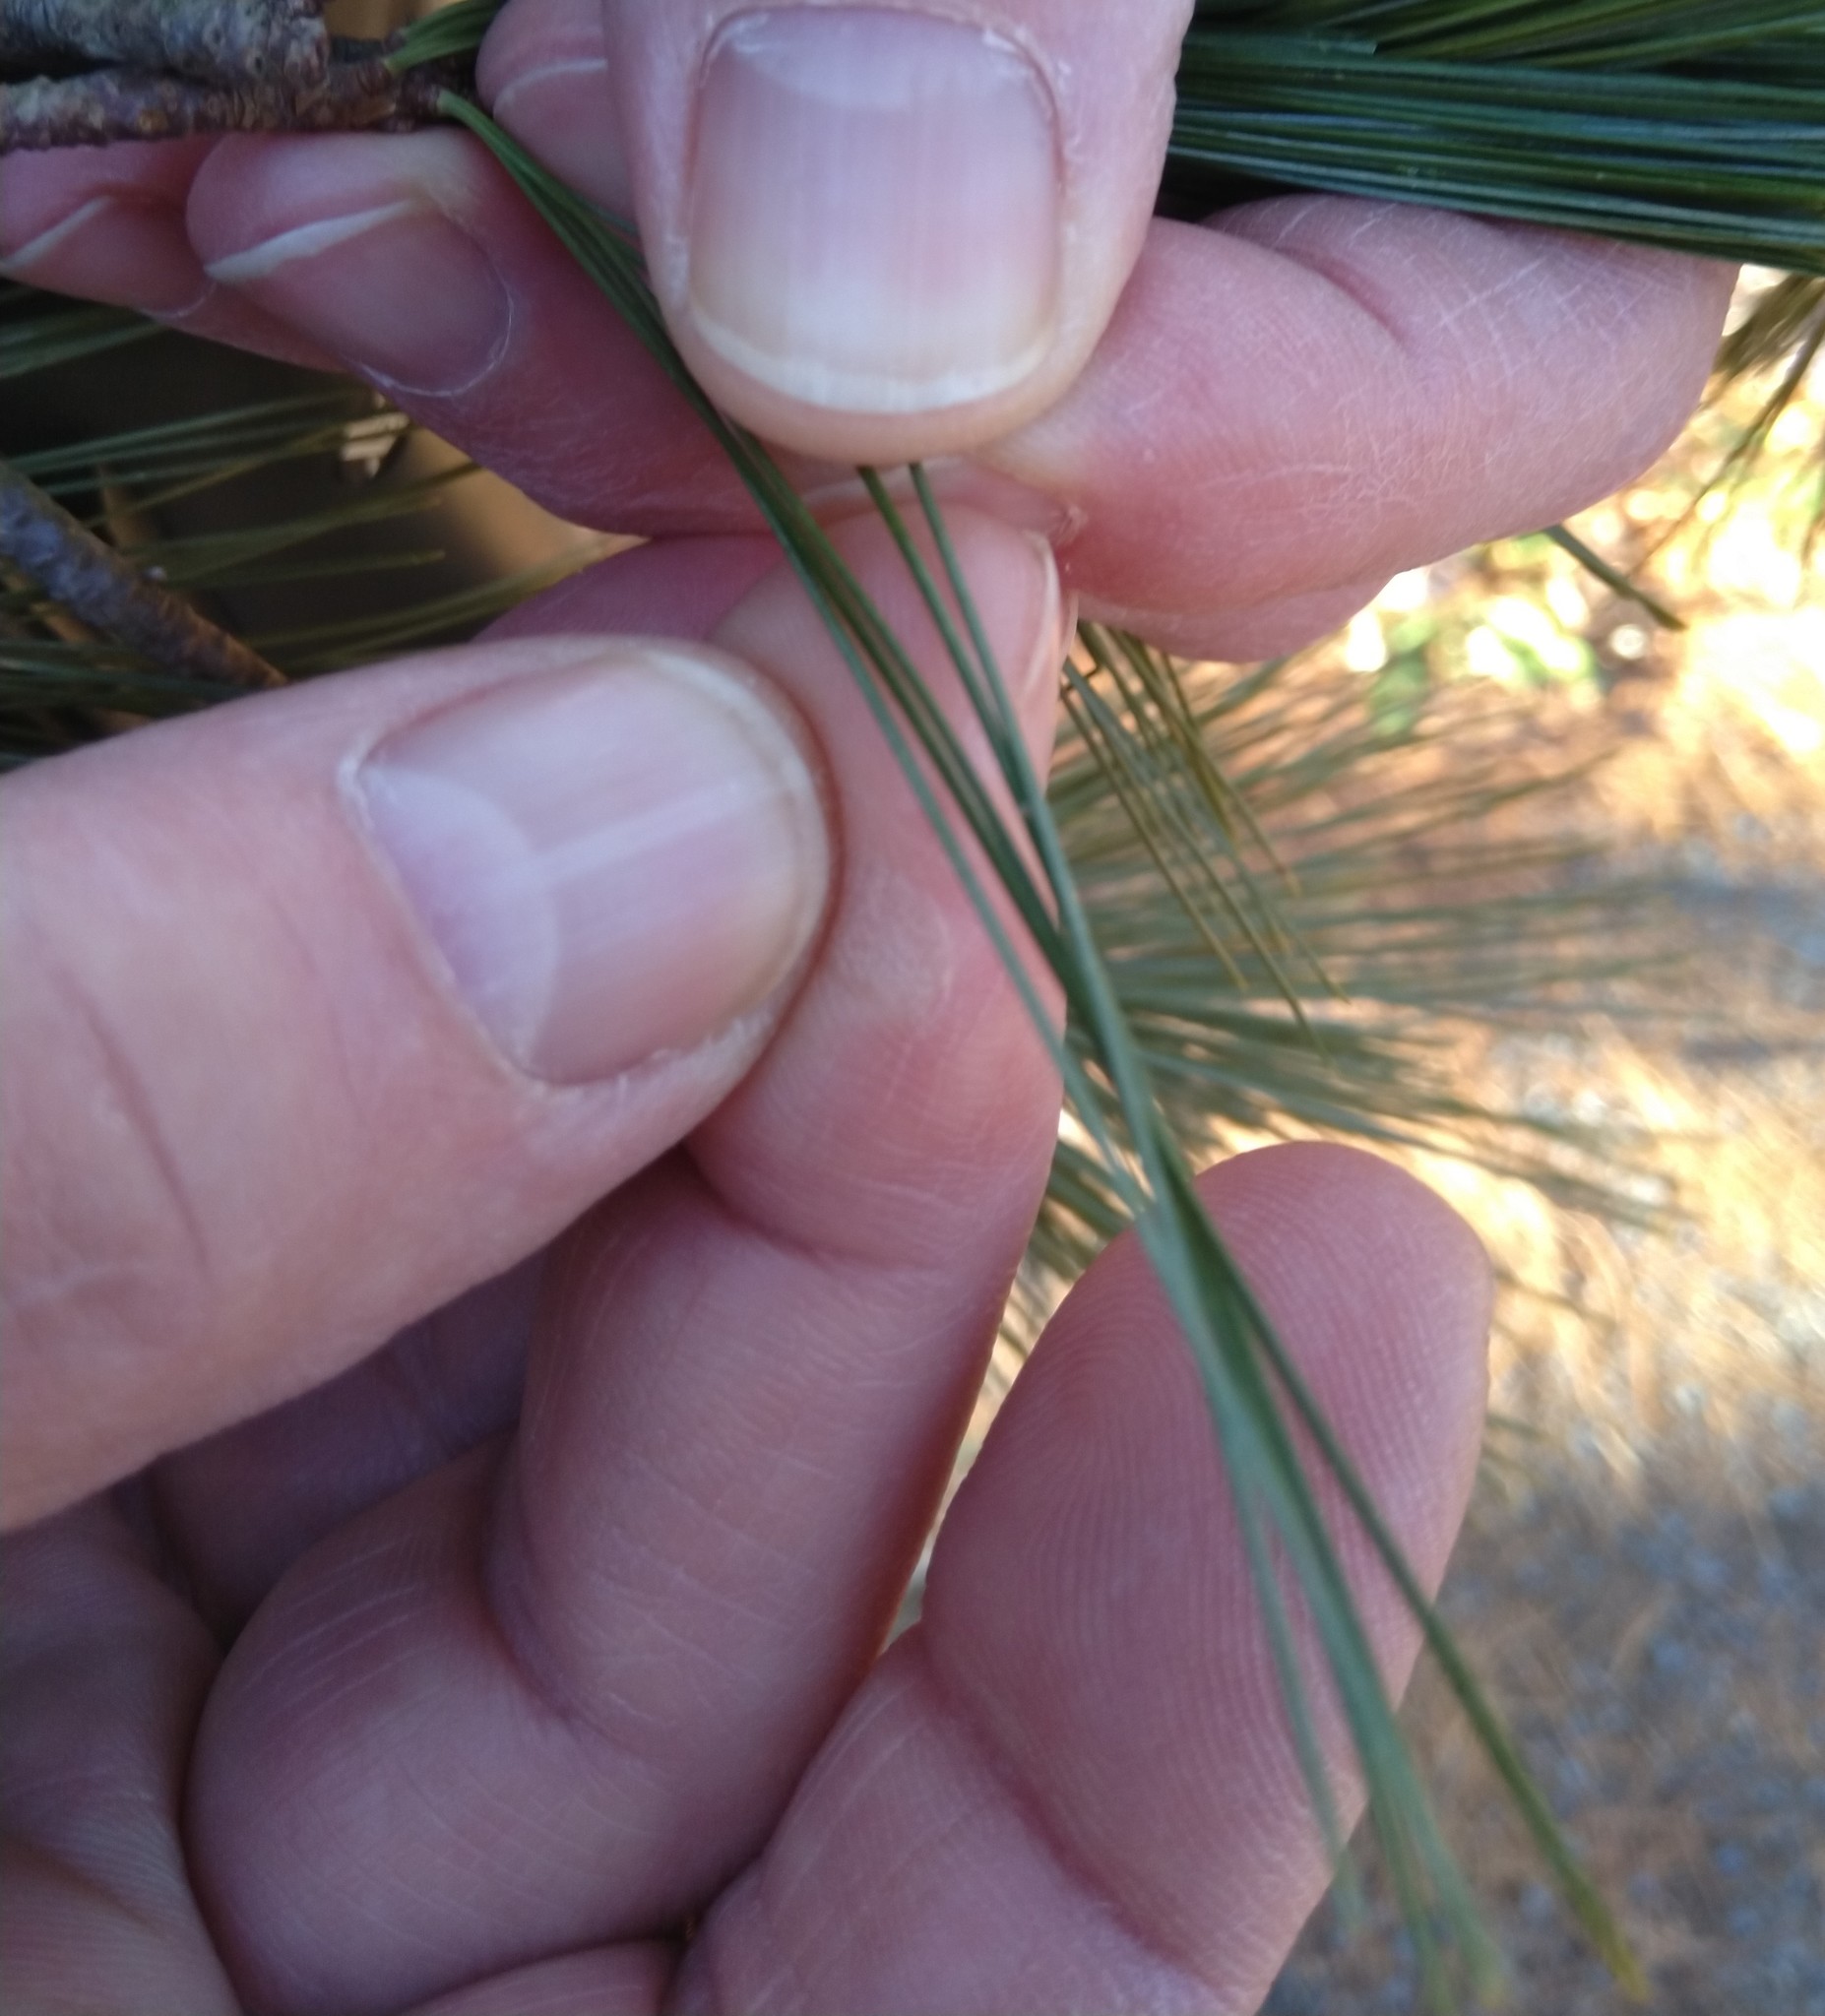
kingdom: Plantae
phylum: Tracheophyta
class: Pinopsida
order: Pinales
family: Pinaceae
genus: Pinus
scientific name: Pinus strobus
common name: Weymouth pine
